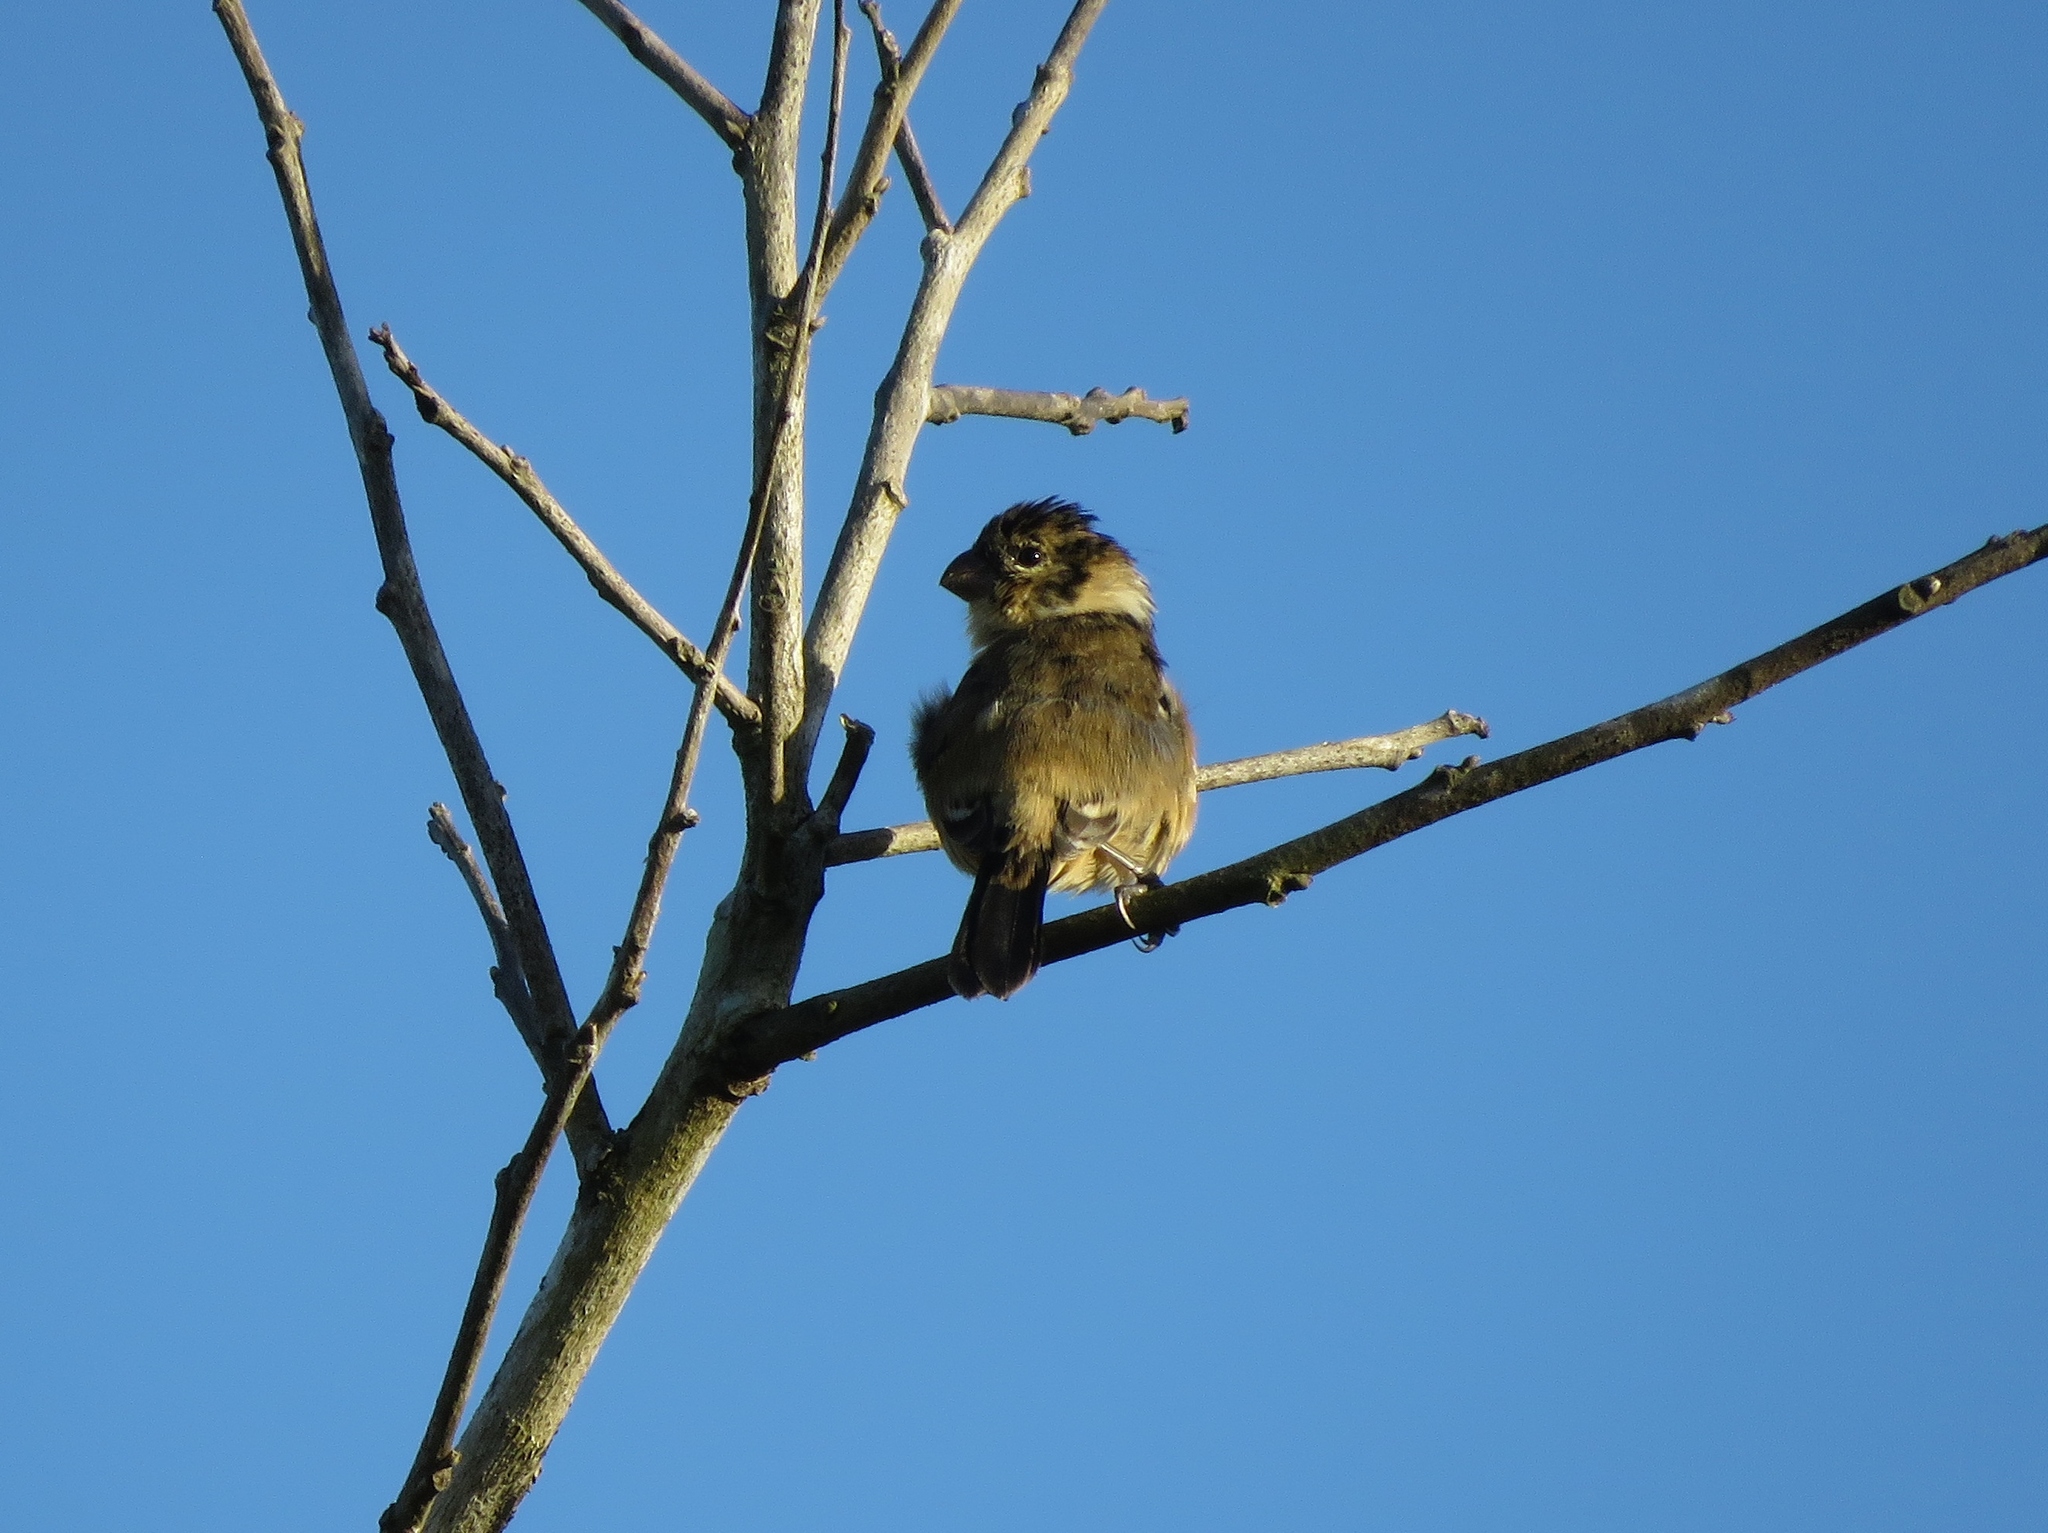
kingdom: Animalia
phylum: Chordata
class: Aves
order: Passeriformes
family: Thraupidae
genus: Sporophila
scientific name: Sporophila morelleti
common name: Morelet's seedeater
